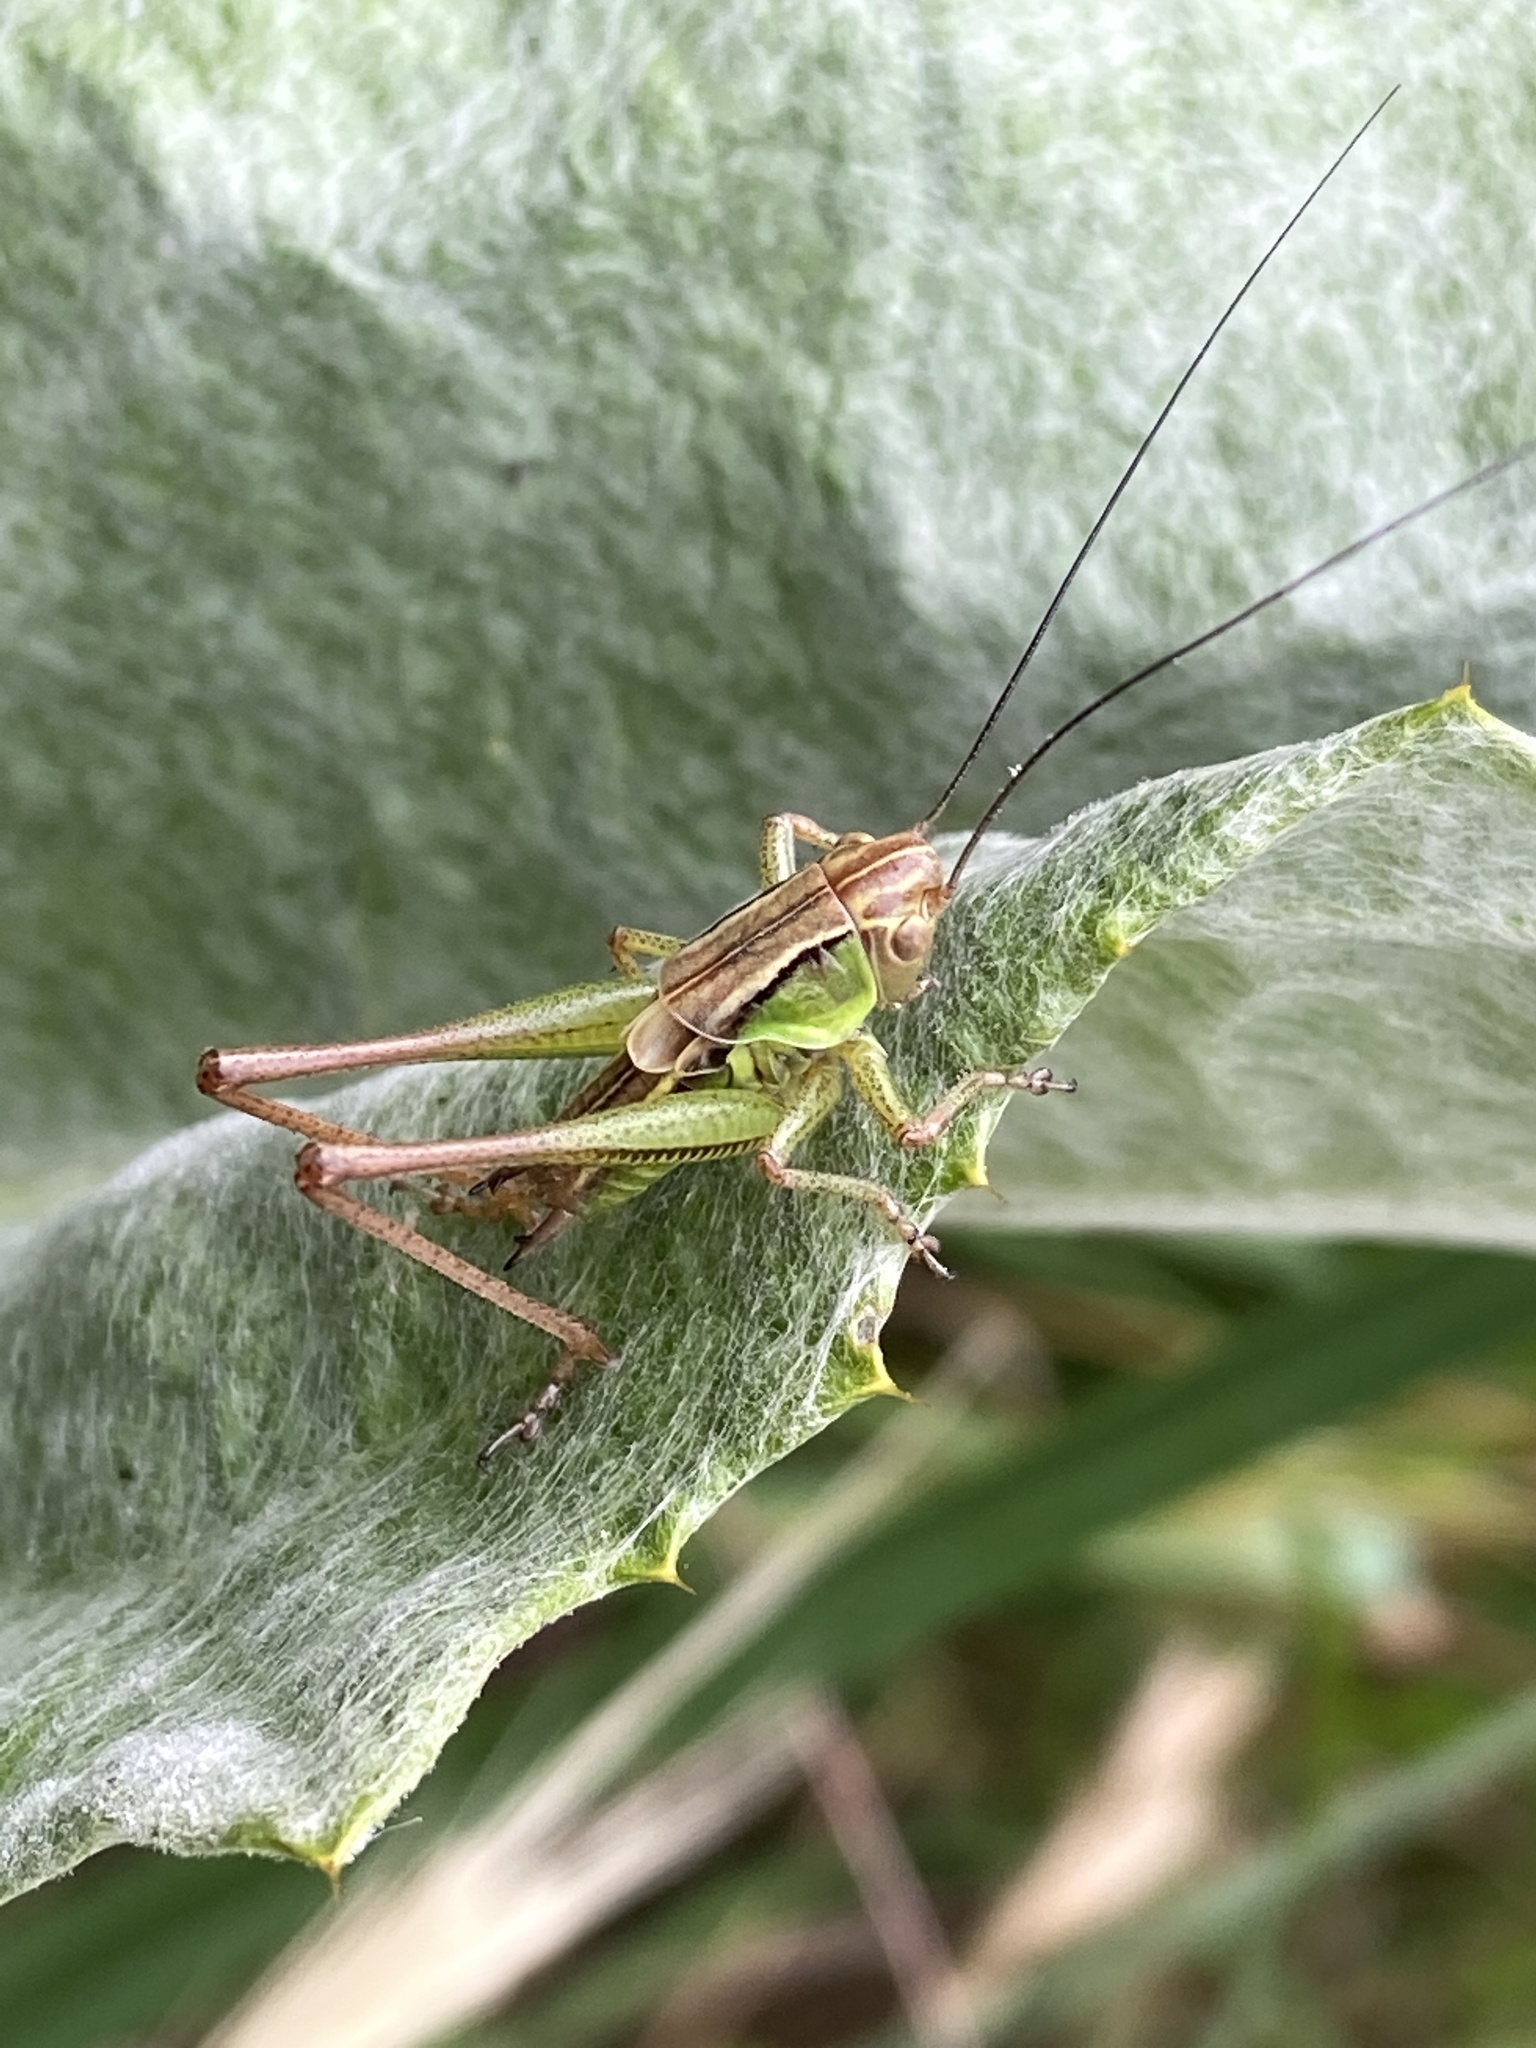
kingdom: Animalia
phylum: Arthropoda
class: Insecta
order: Orthoptera
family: Tettigoniidae
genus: Roeseliana
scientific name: Roeseliana roeselii
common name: Roesel's bush cricket
